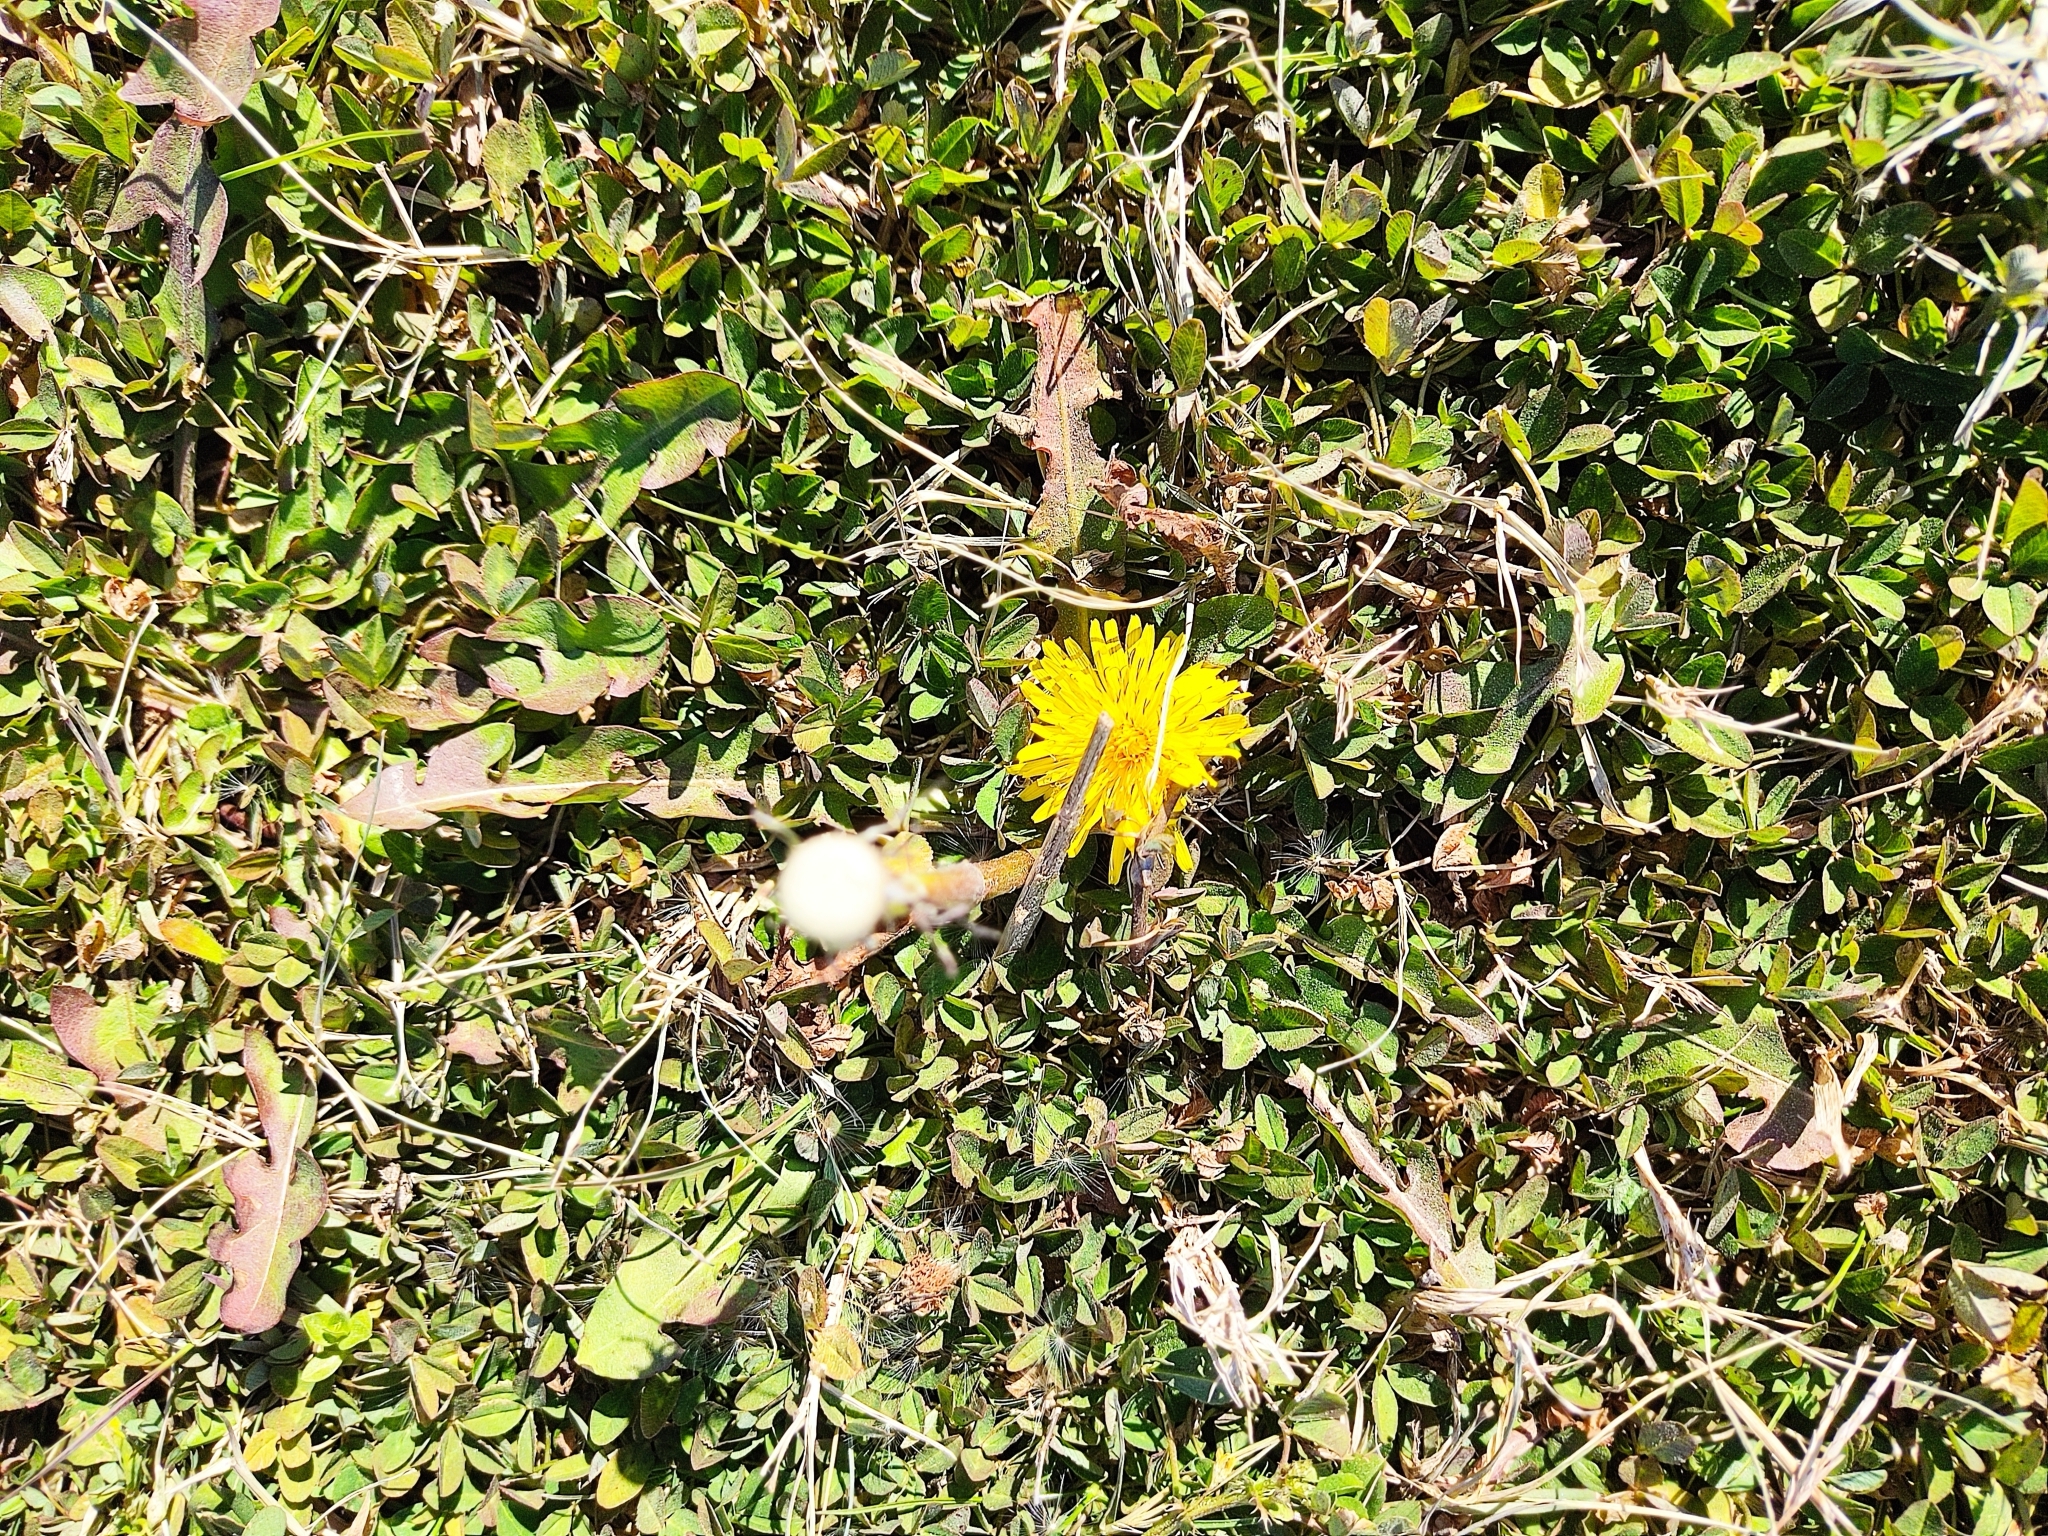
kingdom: Plantae
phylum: Tracheophyta
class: Magnoliopsida
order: Asterales
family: Asteraceae
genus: Taraxacum
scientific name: Taraxacum officinale
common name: Common dandelion
